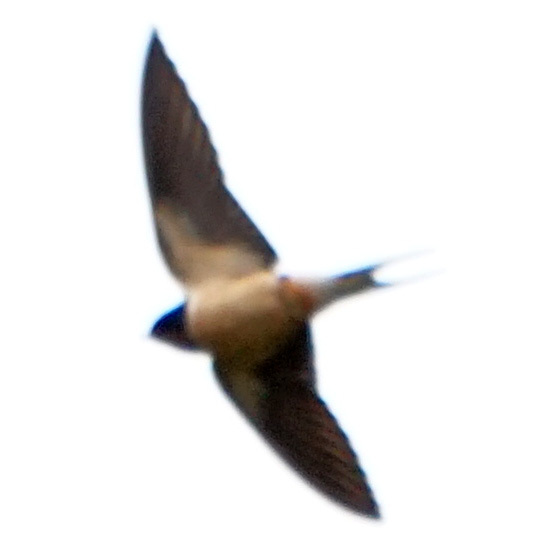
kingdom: Animalia
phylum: Chordata
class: Aves
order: Passeriformes
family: Hirundinidae
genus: Hirundo
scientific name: Hirundo rustica
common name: Barn swallow
